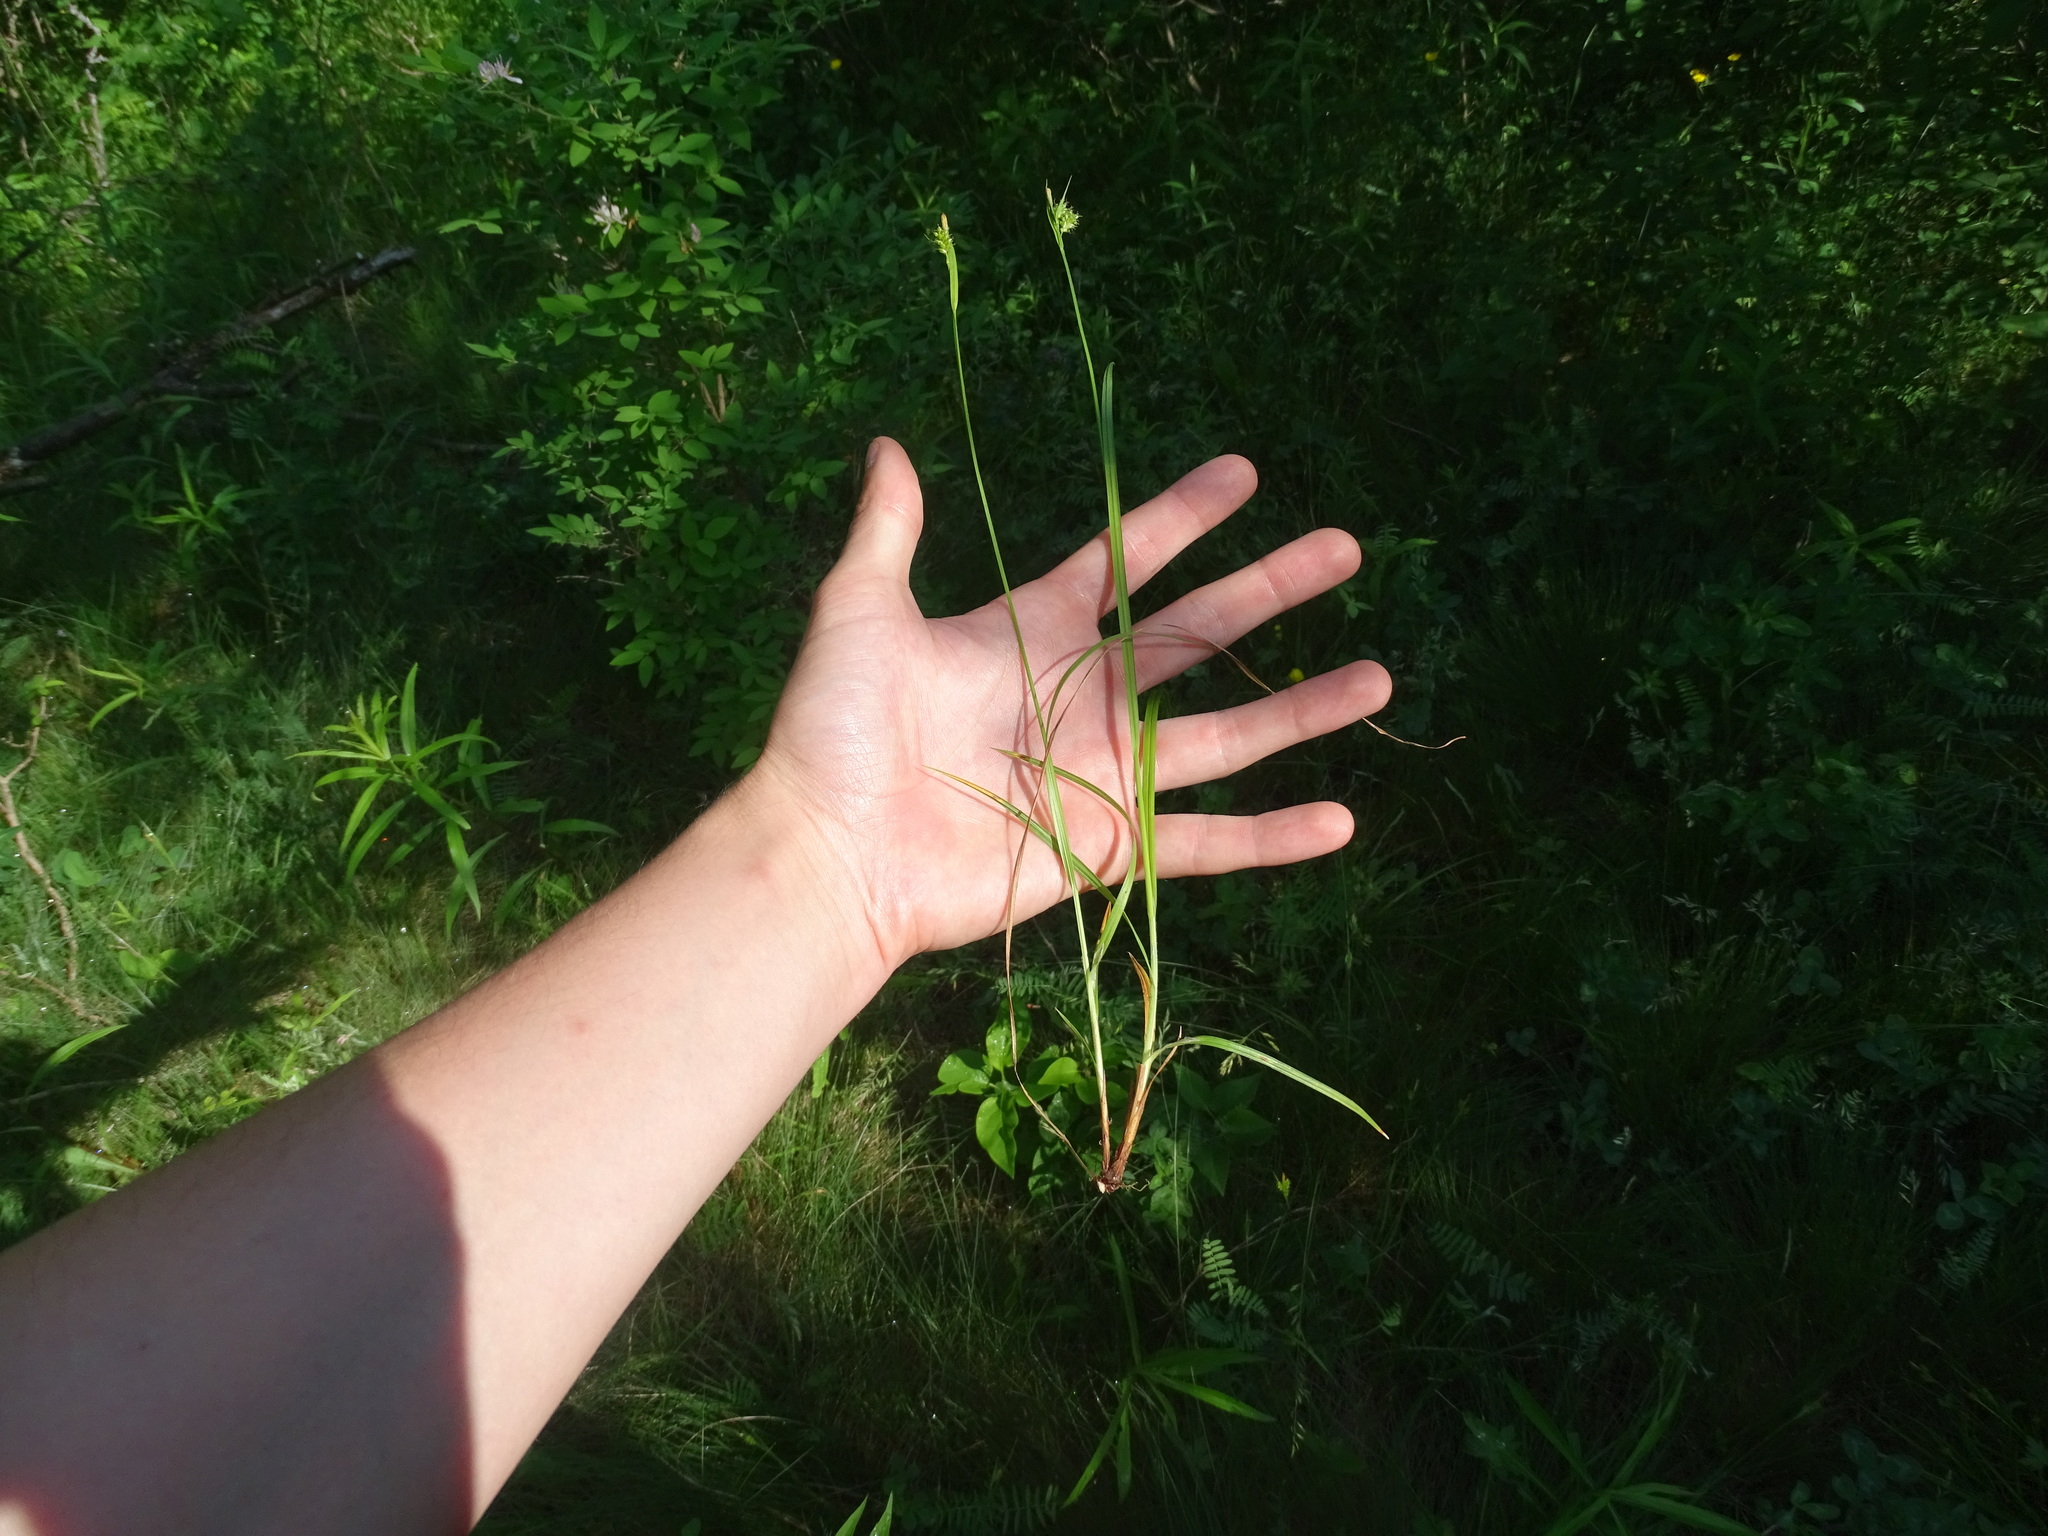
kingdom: Plantae
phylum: Tracheophyta
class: Liliopsida
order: Poales
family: Cyperaceae
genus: Carex
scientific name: Carex pallescens
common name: Pale sedge
